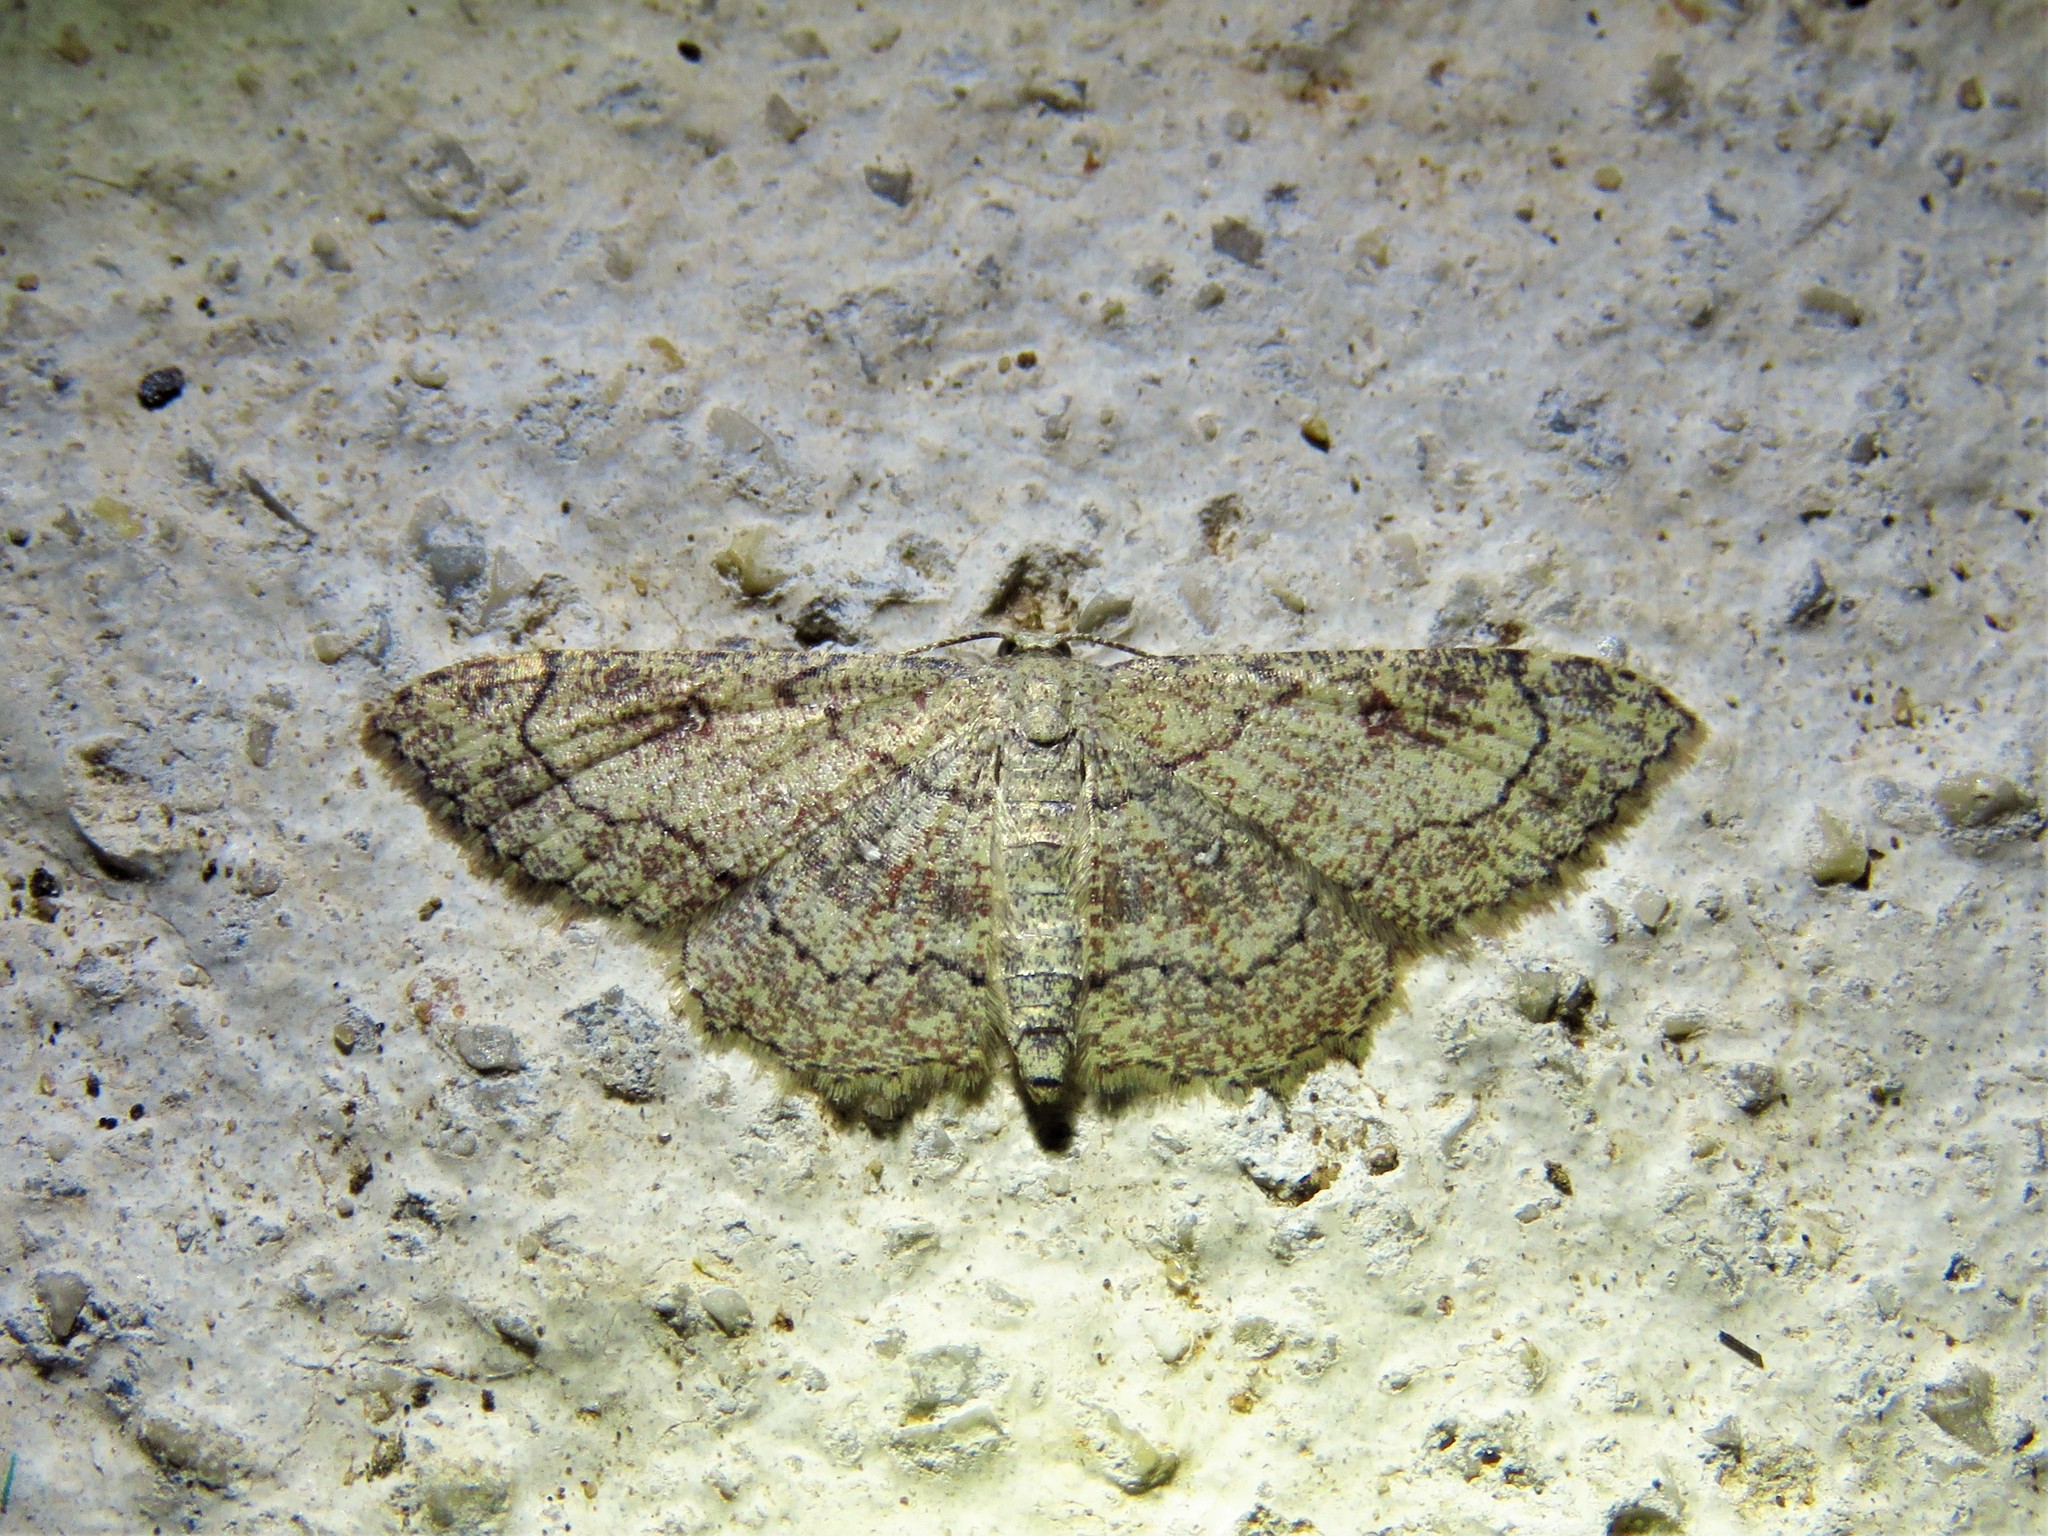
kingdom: Animalia
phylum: Arthropoda
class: Insecta
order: Lepidoptera
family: Geometridae
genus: Cyclophora
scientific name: Cyclophora nanaria
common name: Cankerworm
